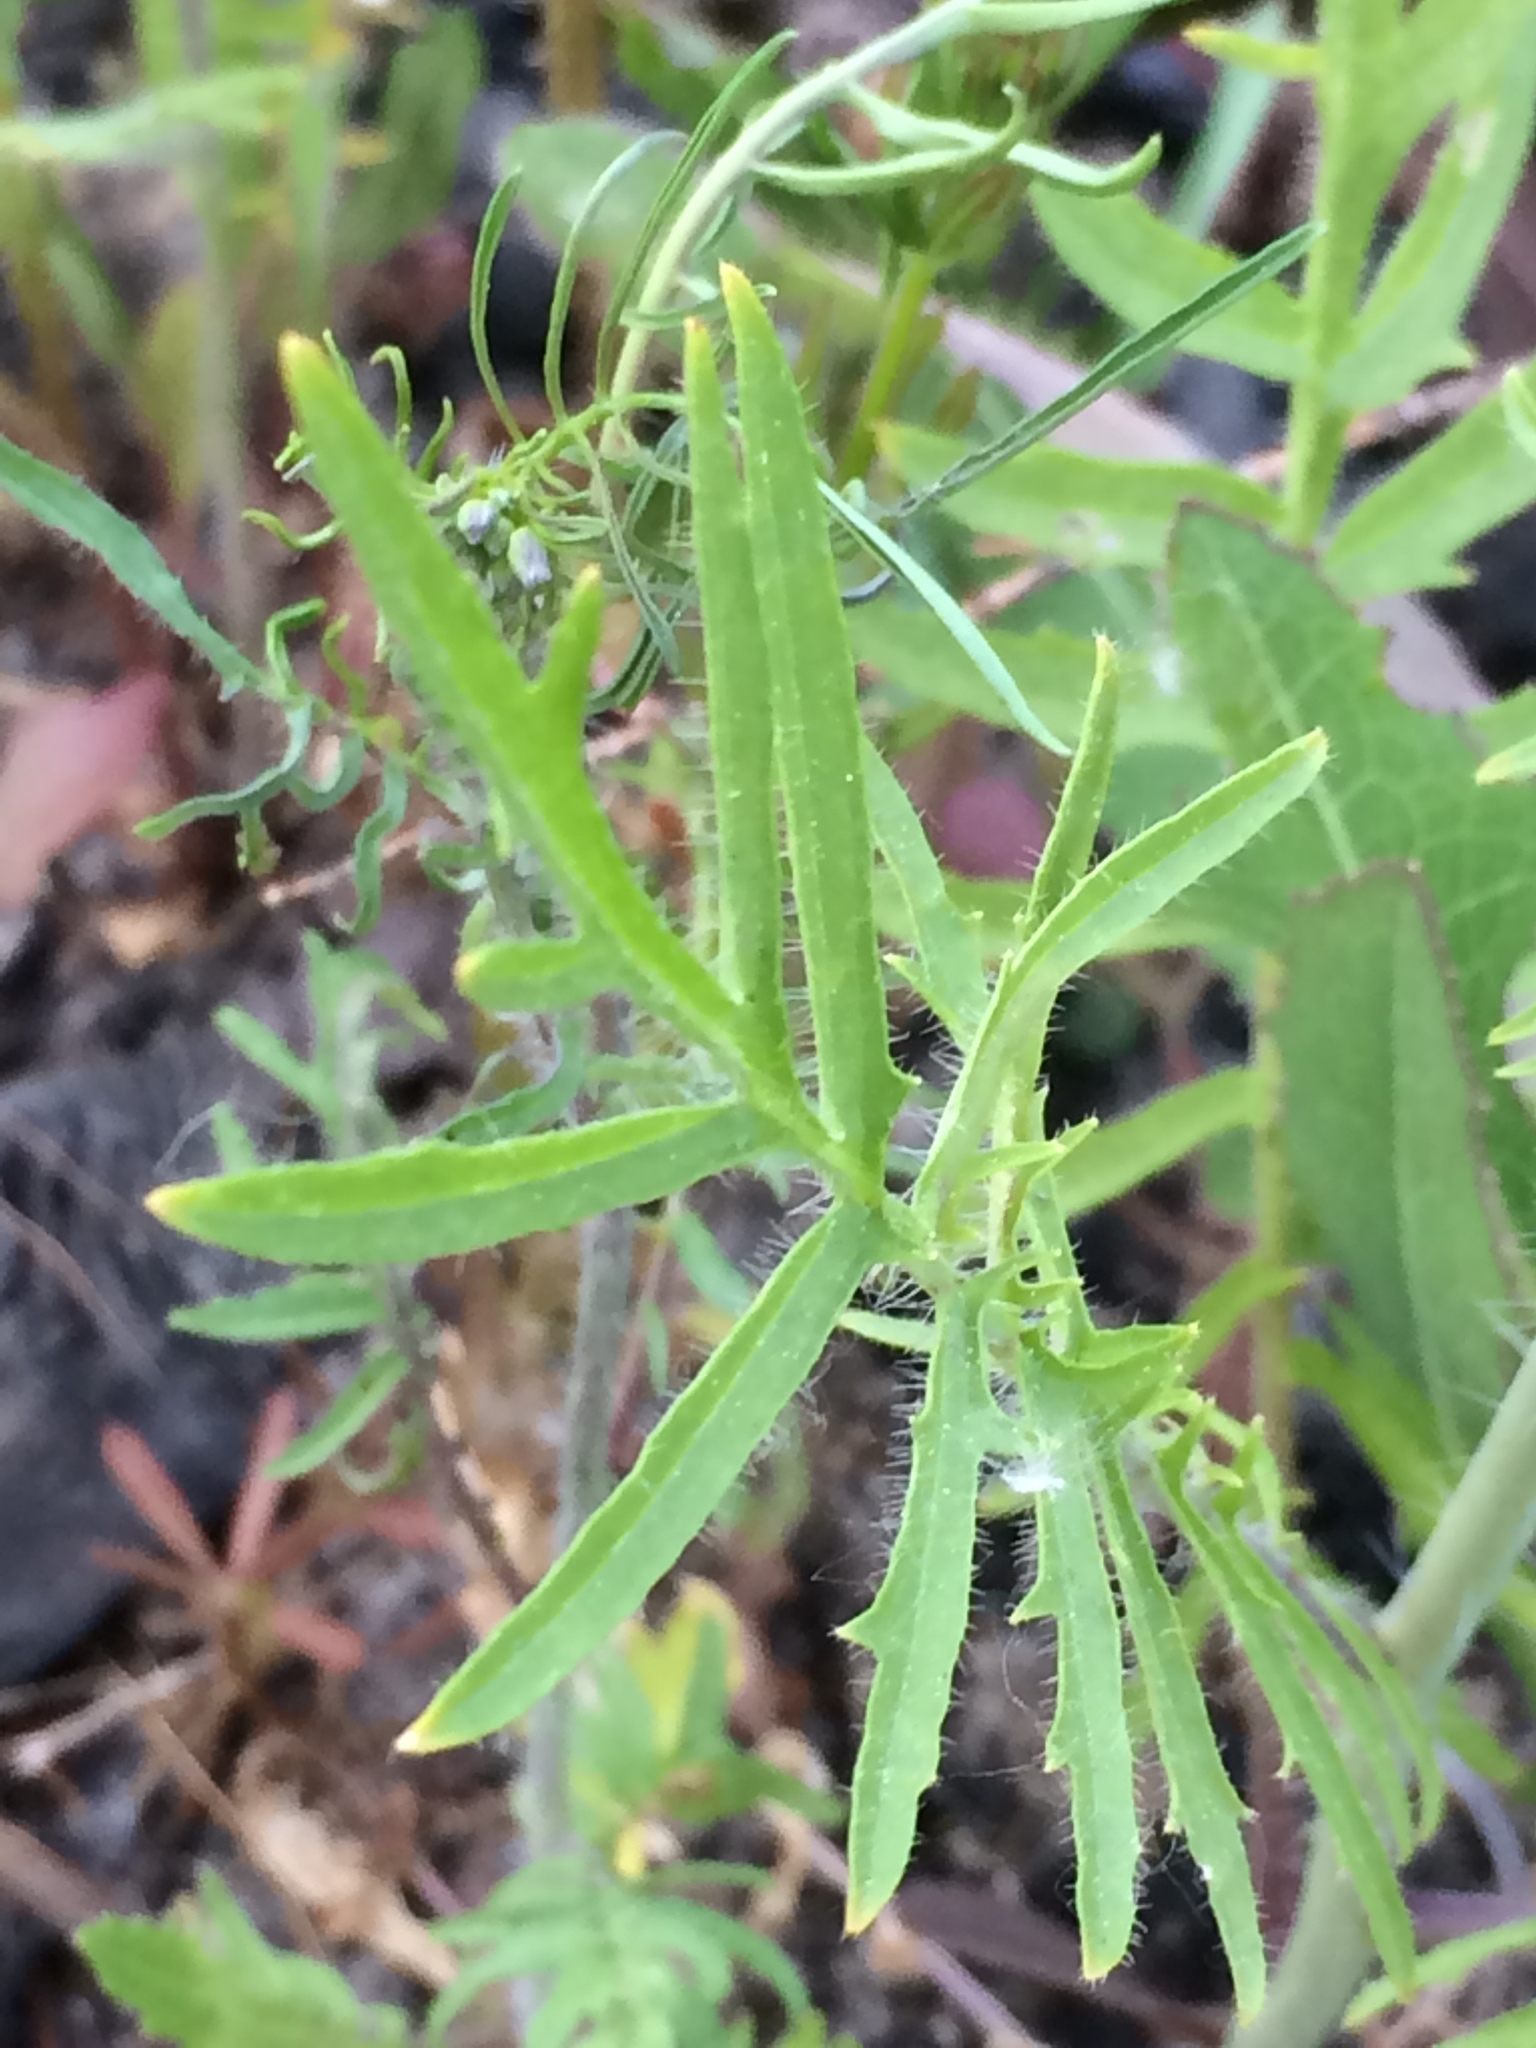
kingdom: Plantae
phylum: Tracheophyta
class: Magnoliopsida
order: Brassicales
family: Brassicaceae
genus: Sisymbrium
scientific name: Sisymbrium altissimum
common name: Tall rocket
